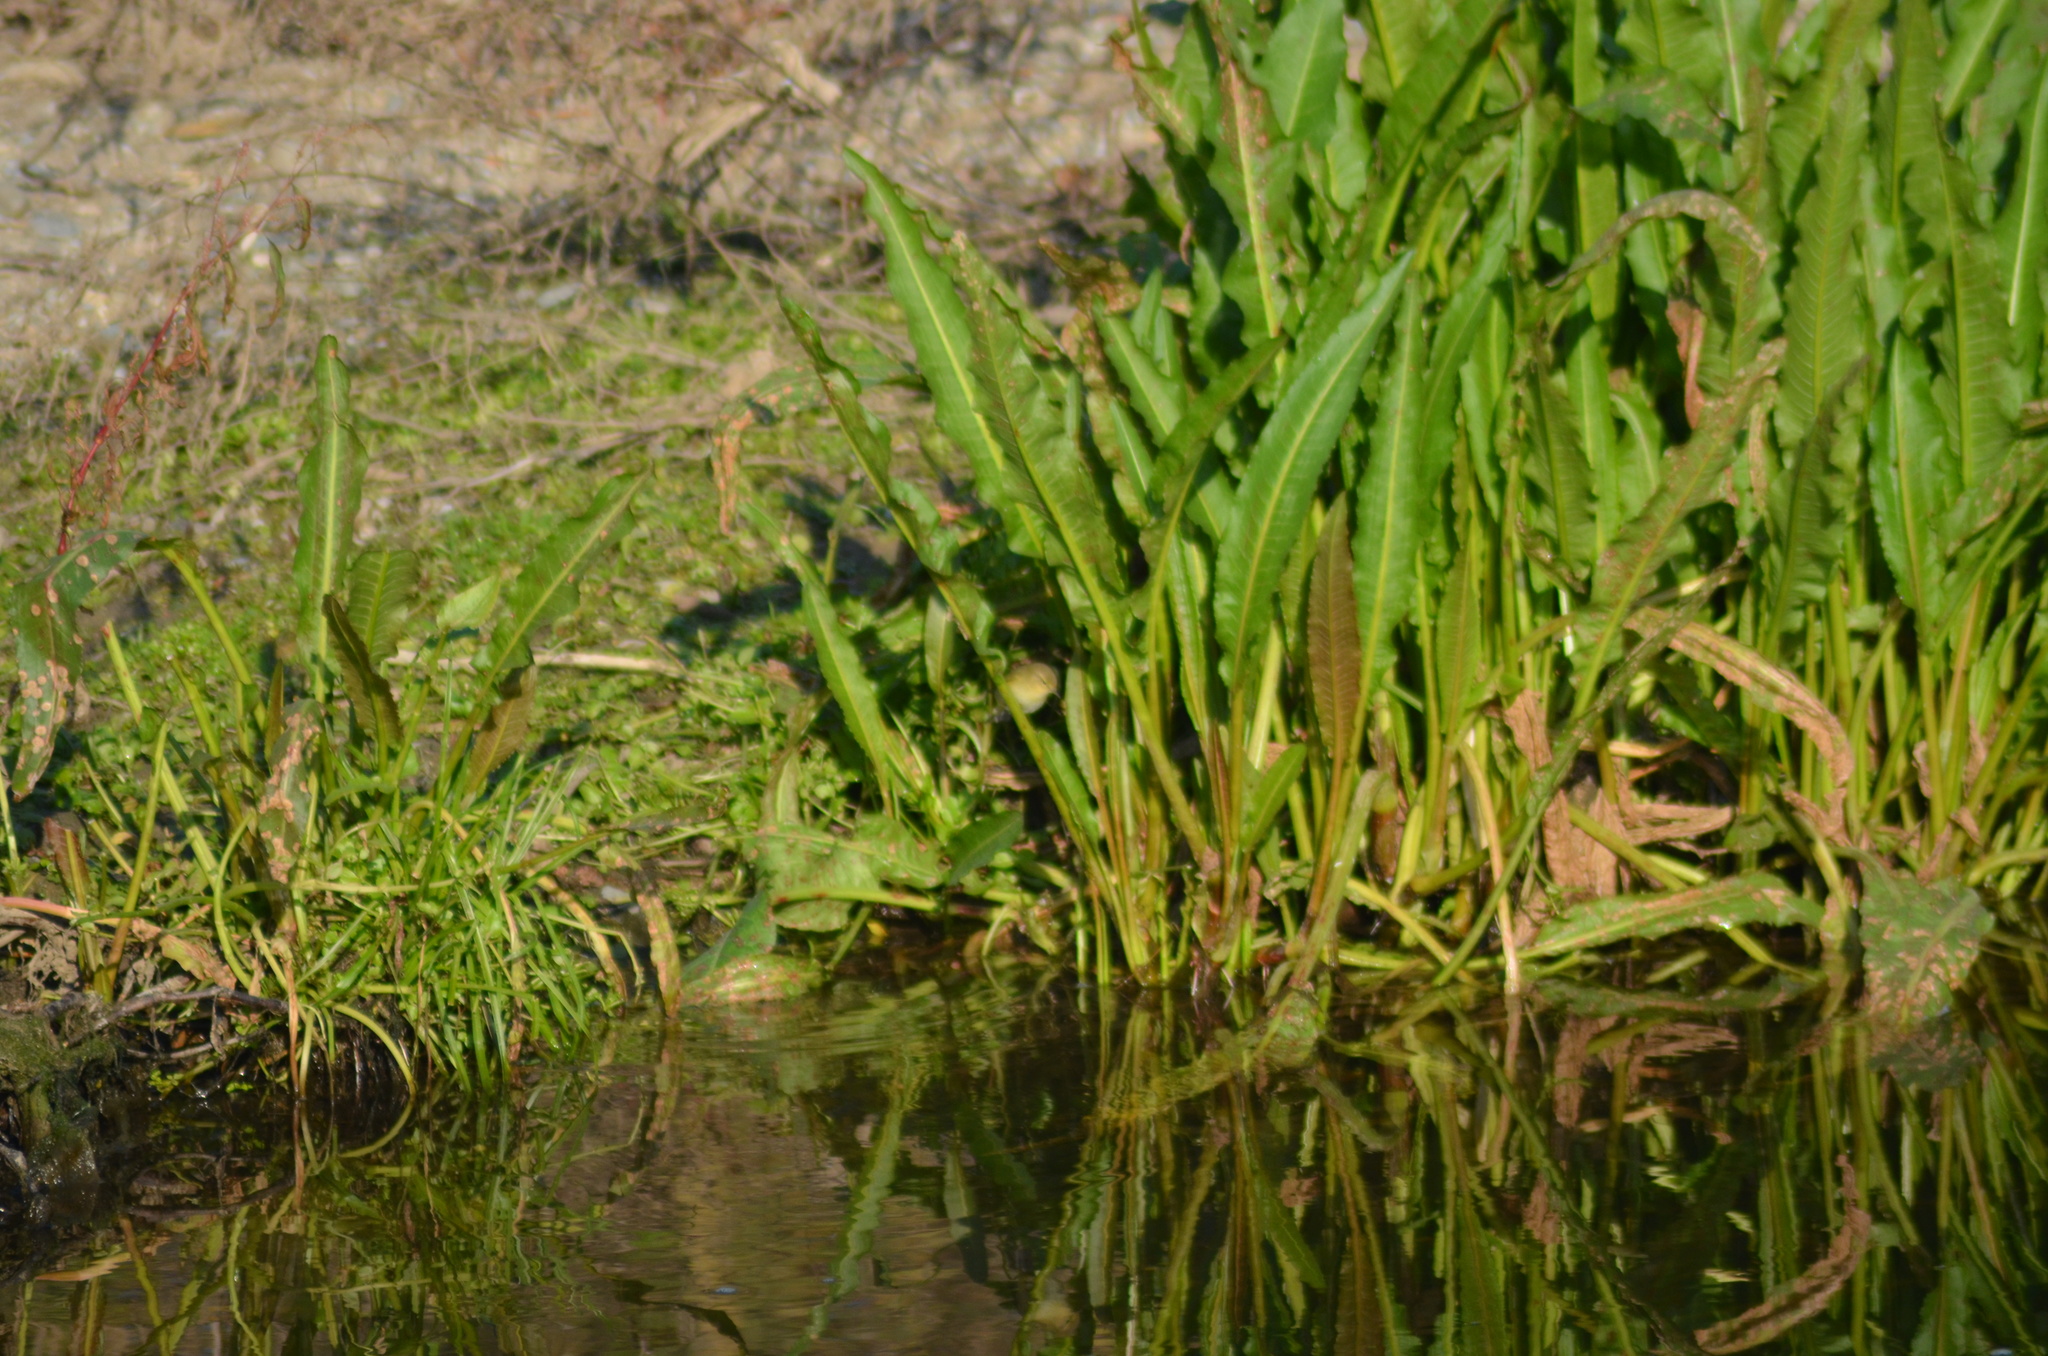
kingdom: Animalia
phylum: Chordata
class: Aves
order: Passeriformes
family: Phylloscopidae
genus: Phylloscopus
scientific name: Phylloscopus collybita
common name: Common chiffchaff
